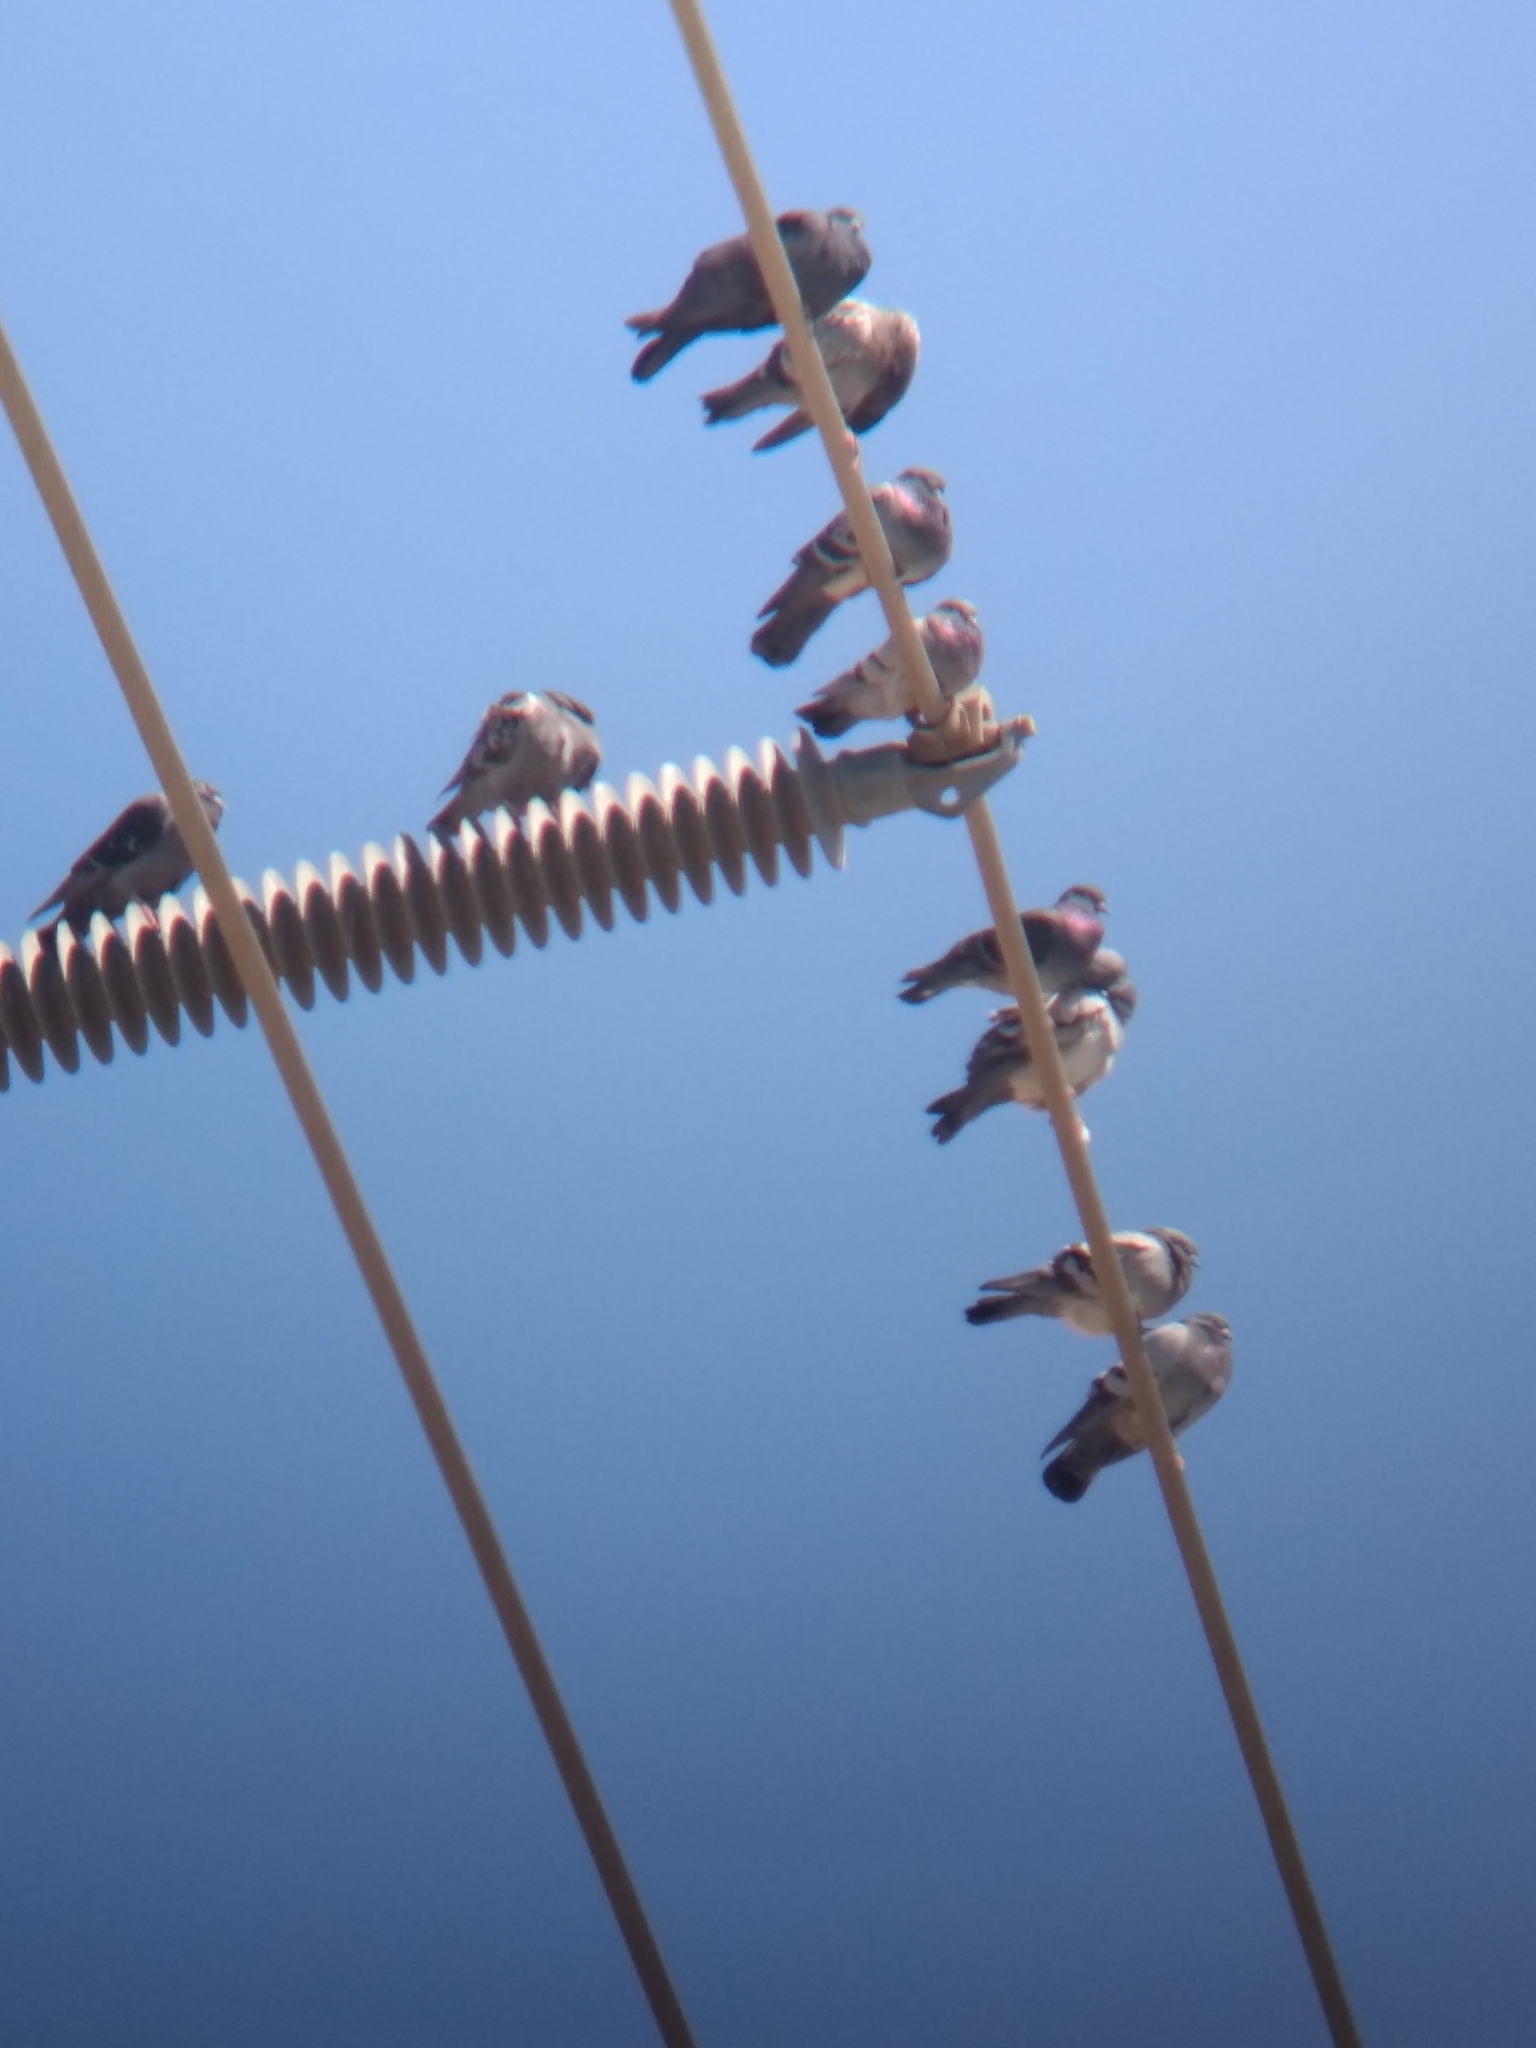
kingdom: Animalia
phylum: Chordata
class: Aves
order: Columbiformes
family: Columbidae
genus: Columba
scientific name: Columba livia
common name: Rock pigeon
